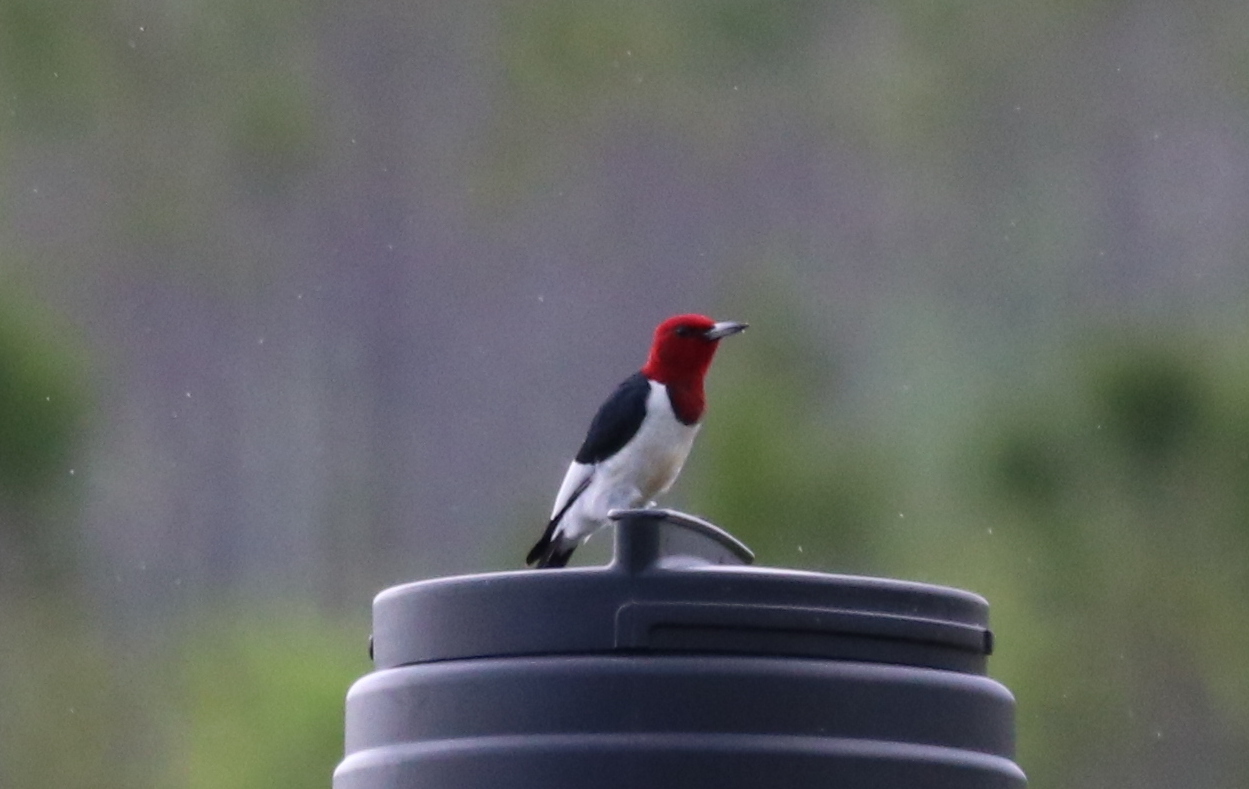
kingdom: Animalia
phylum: Chordata
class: Aves
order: Piciformes
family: Picidae
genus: Melanerpes
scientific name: Melanerpes erythrocephalus
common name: Red-headed woodpecker
